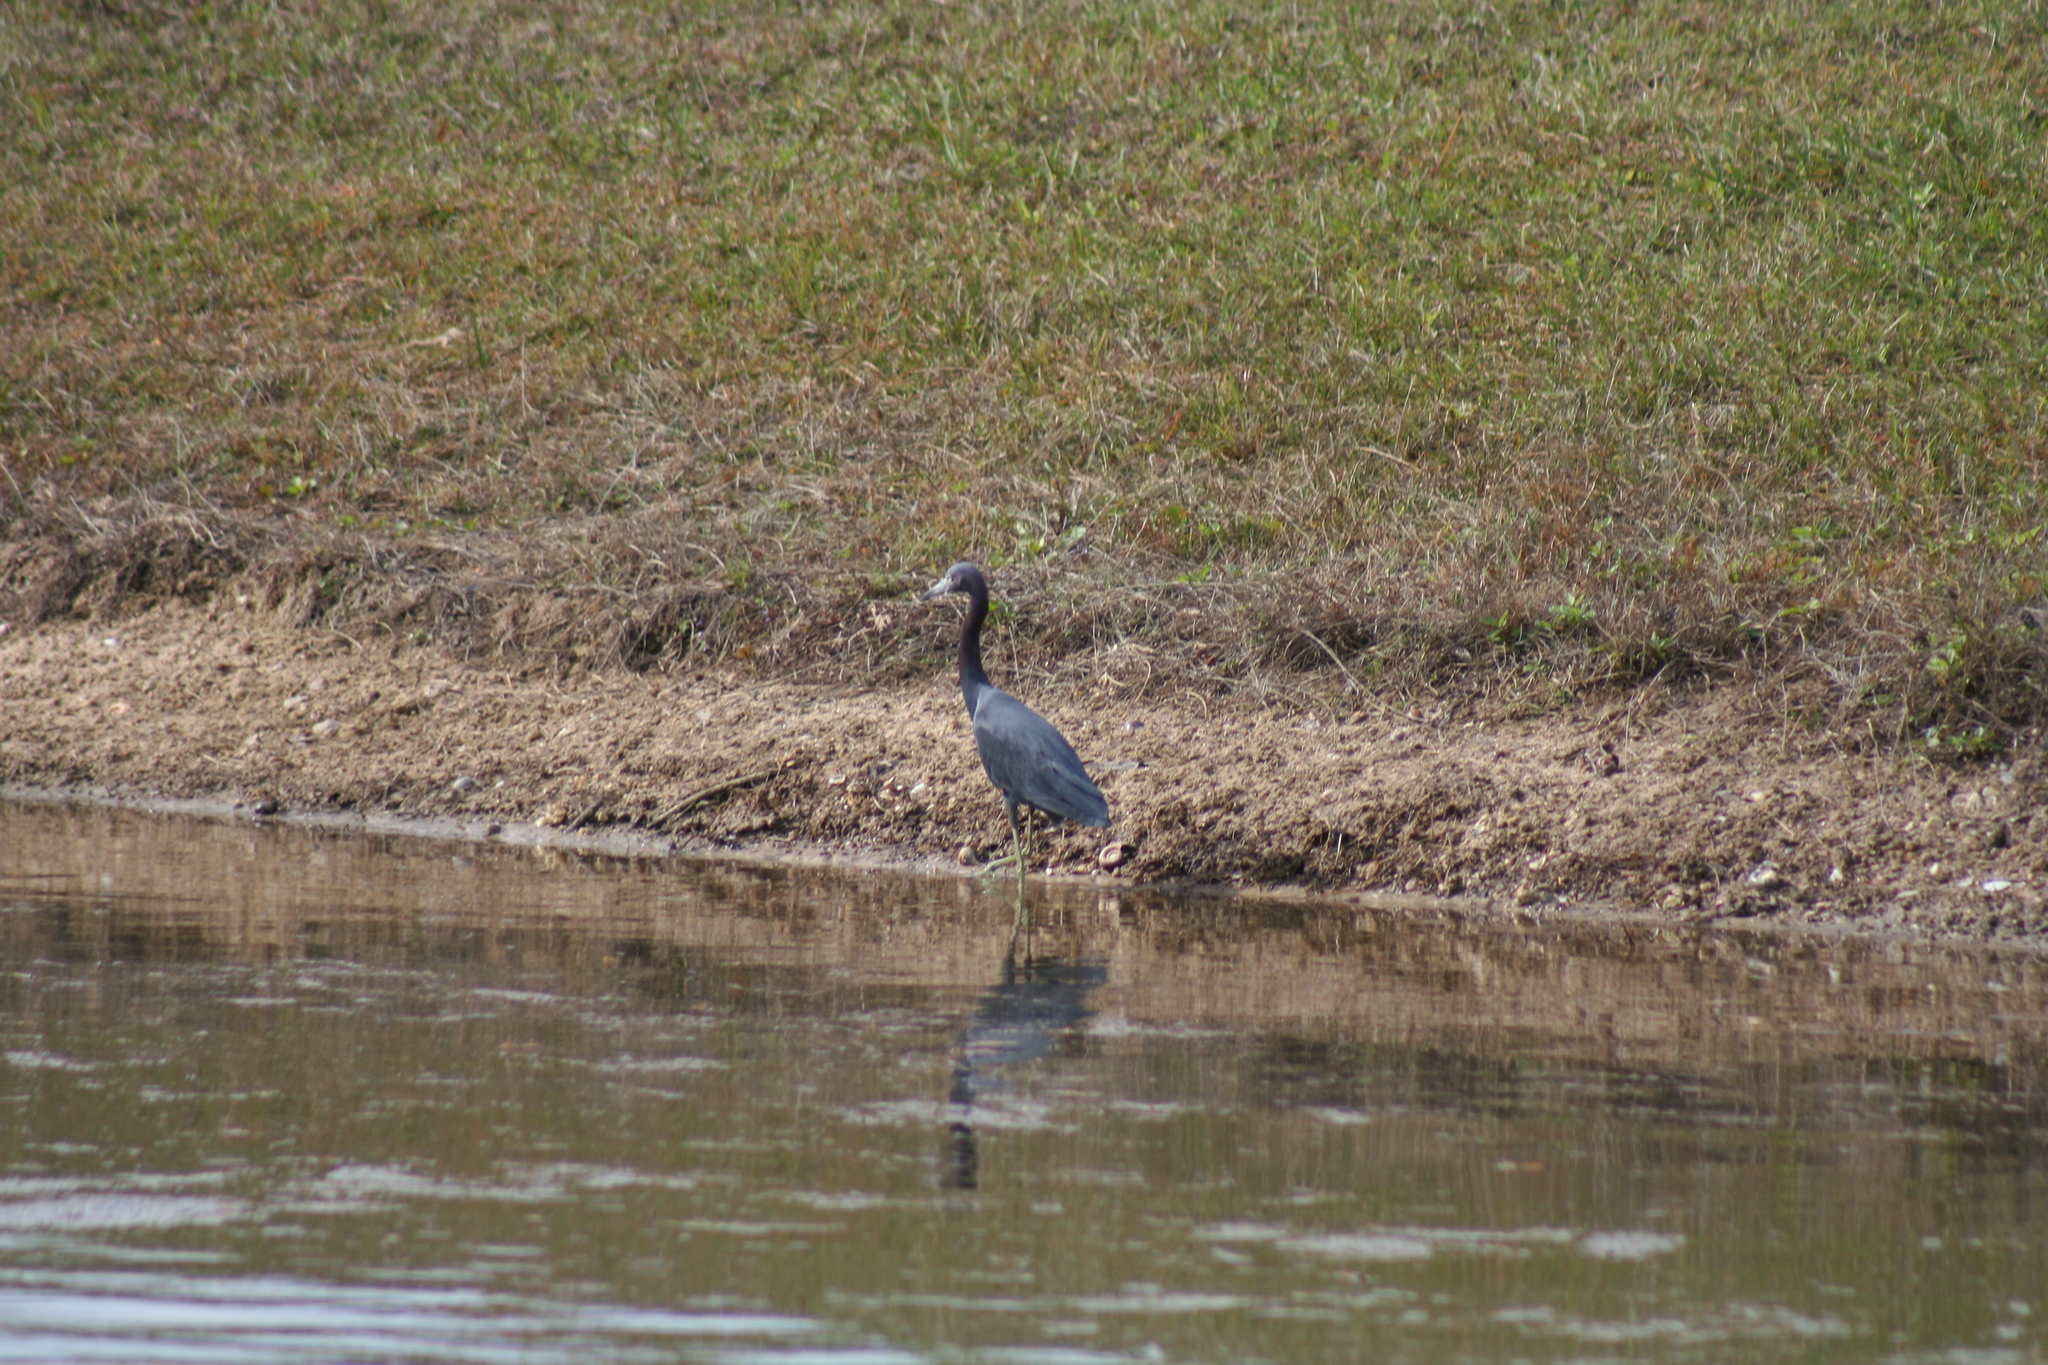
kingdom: Animalia
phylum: Chordata
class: Aves
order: Pelecaniformes
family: Ardeidae
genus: Egretta
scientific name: Egretta caerulea
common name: Little blue heron
